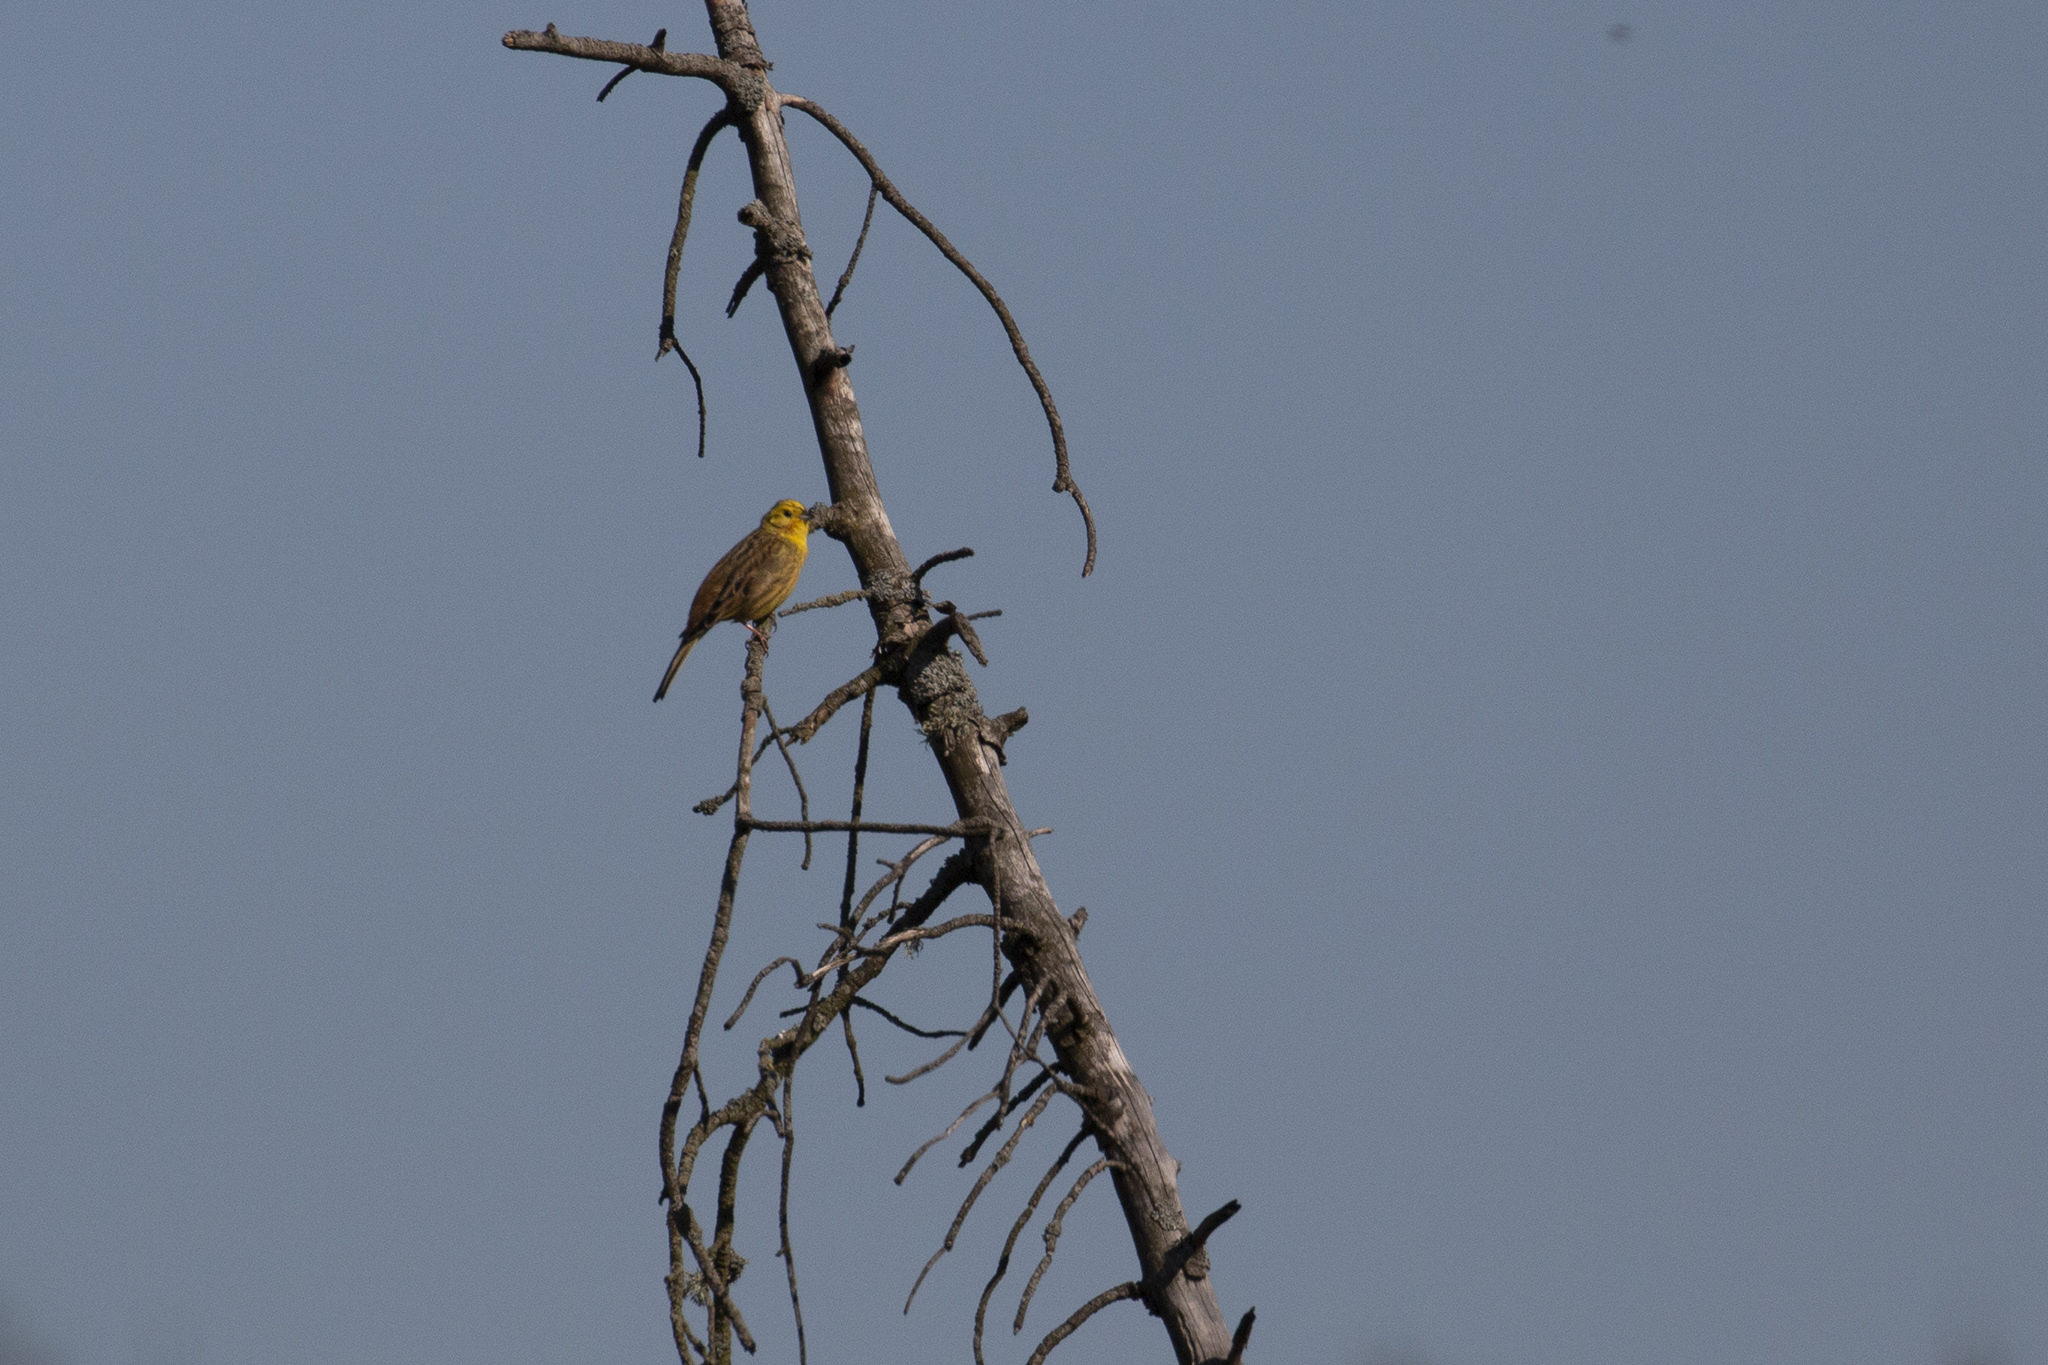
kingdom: Animalia
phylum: Chordata
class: Aves
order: Passeriformes
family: Emberizidae
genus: Emberiza
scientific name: Emberiza citrinella
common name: Yellowhammer
